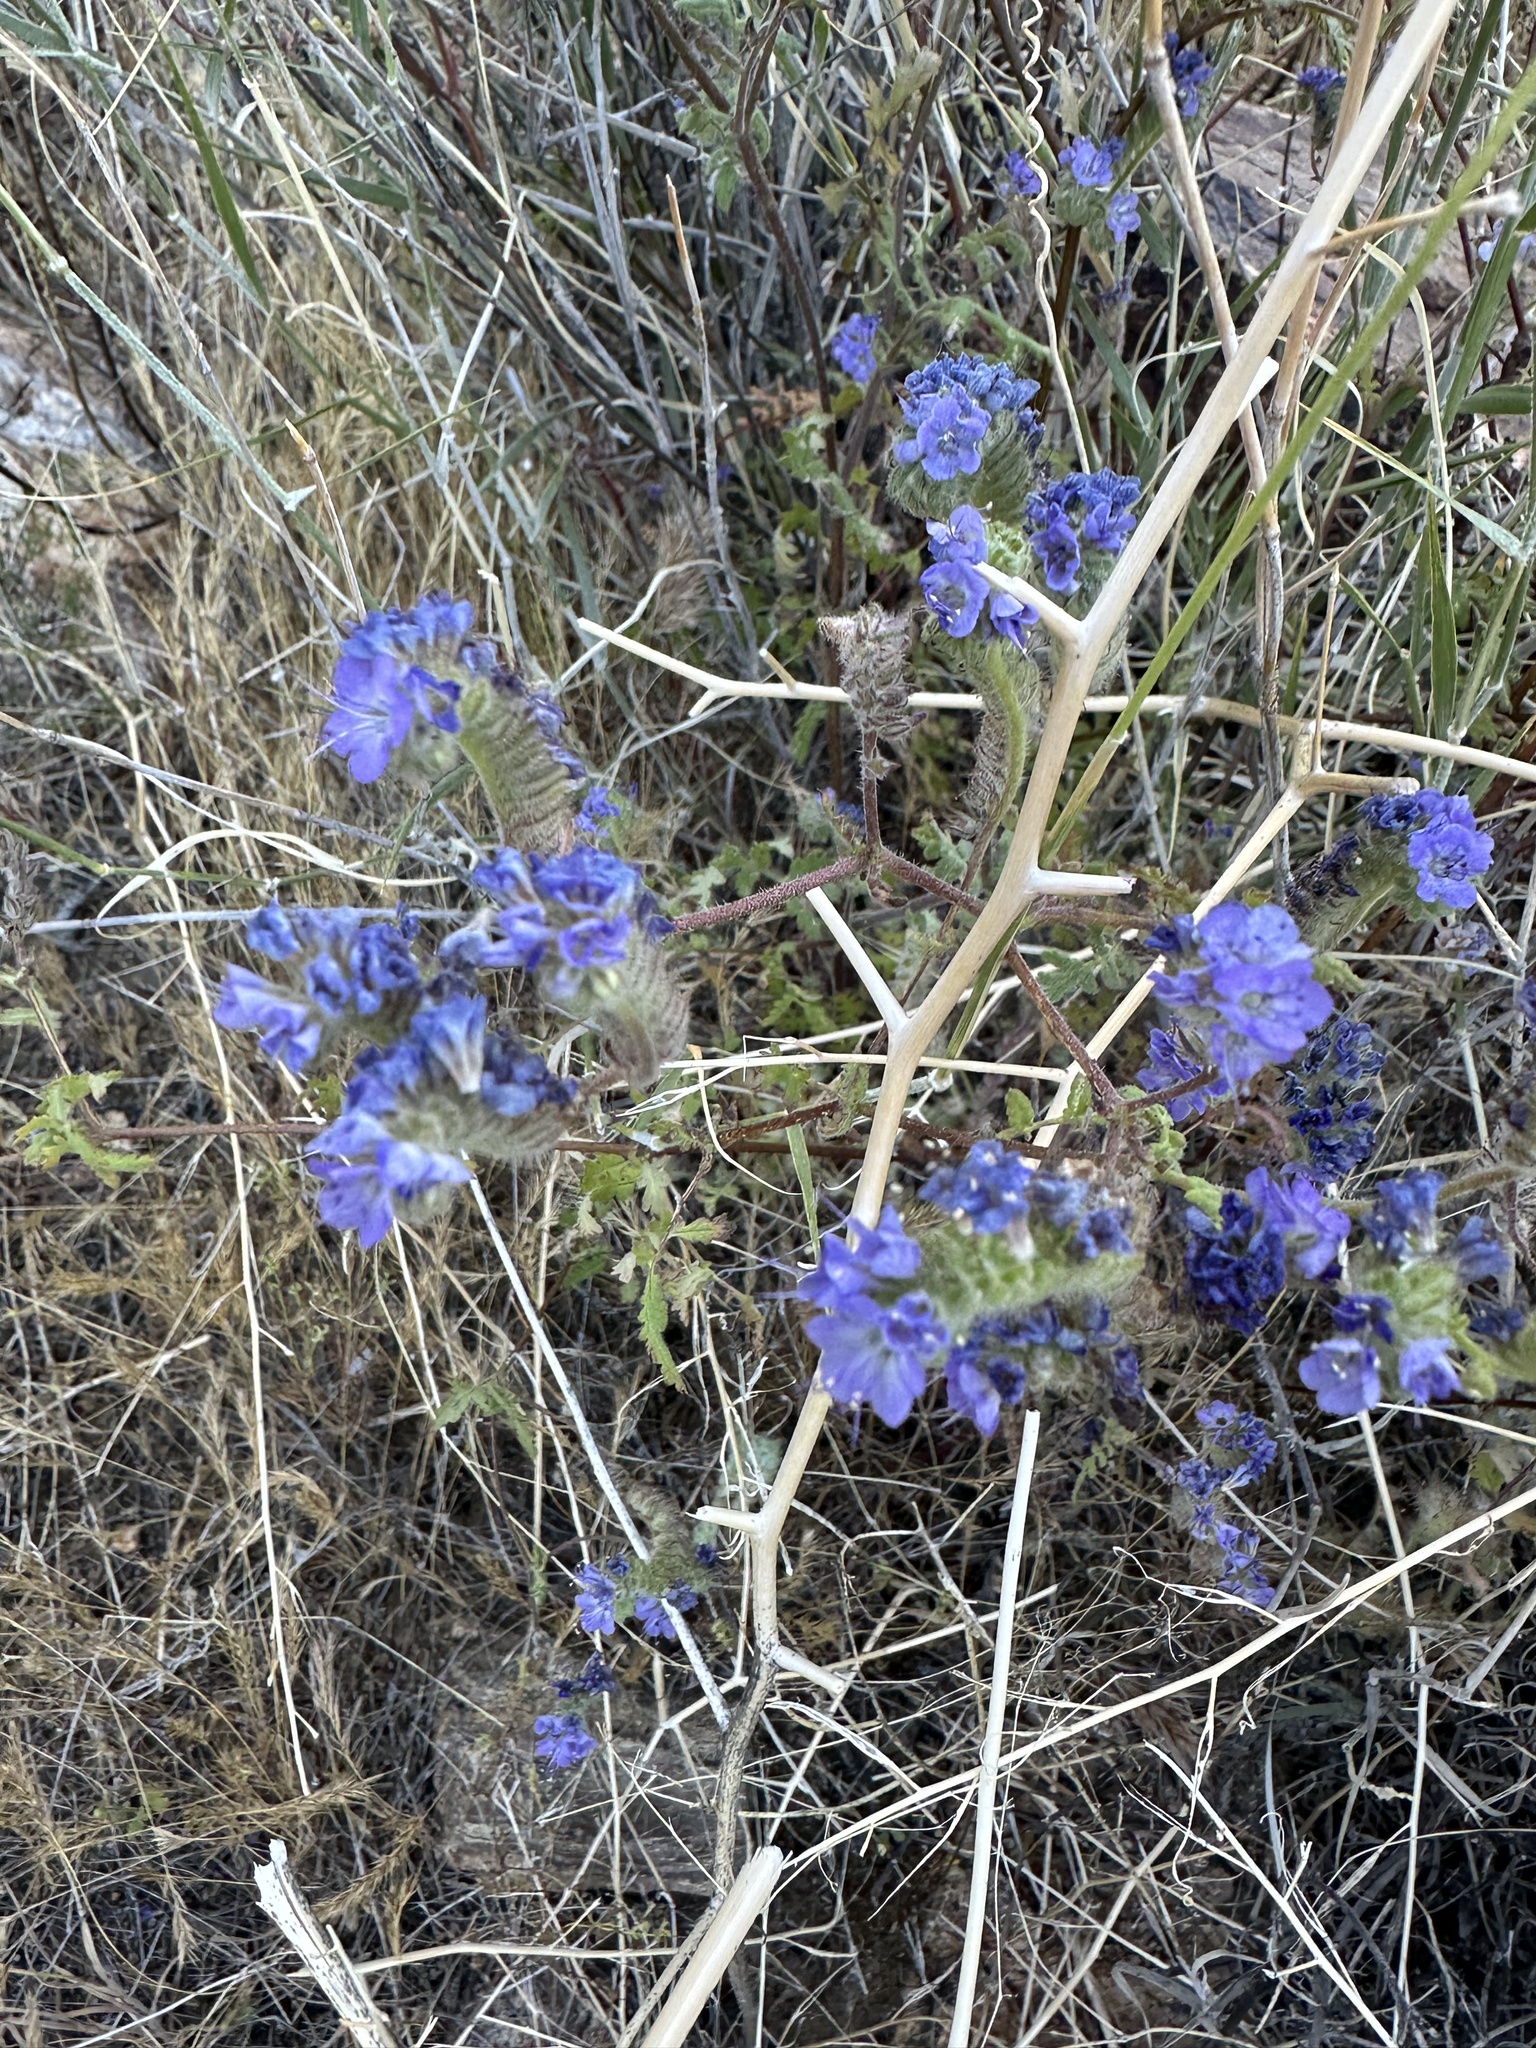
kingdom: Plantae
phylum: Tracheophyta
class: Magnoliopsida
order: Boraginales
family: Hydrophyllaceae
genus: Phacelia
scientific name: Phacelia distans
